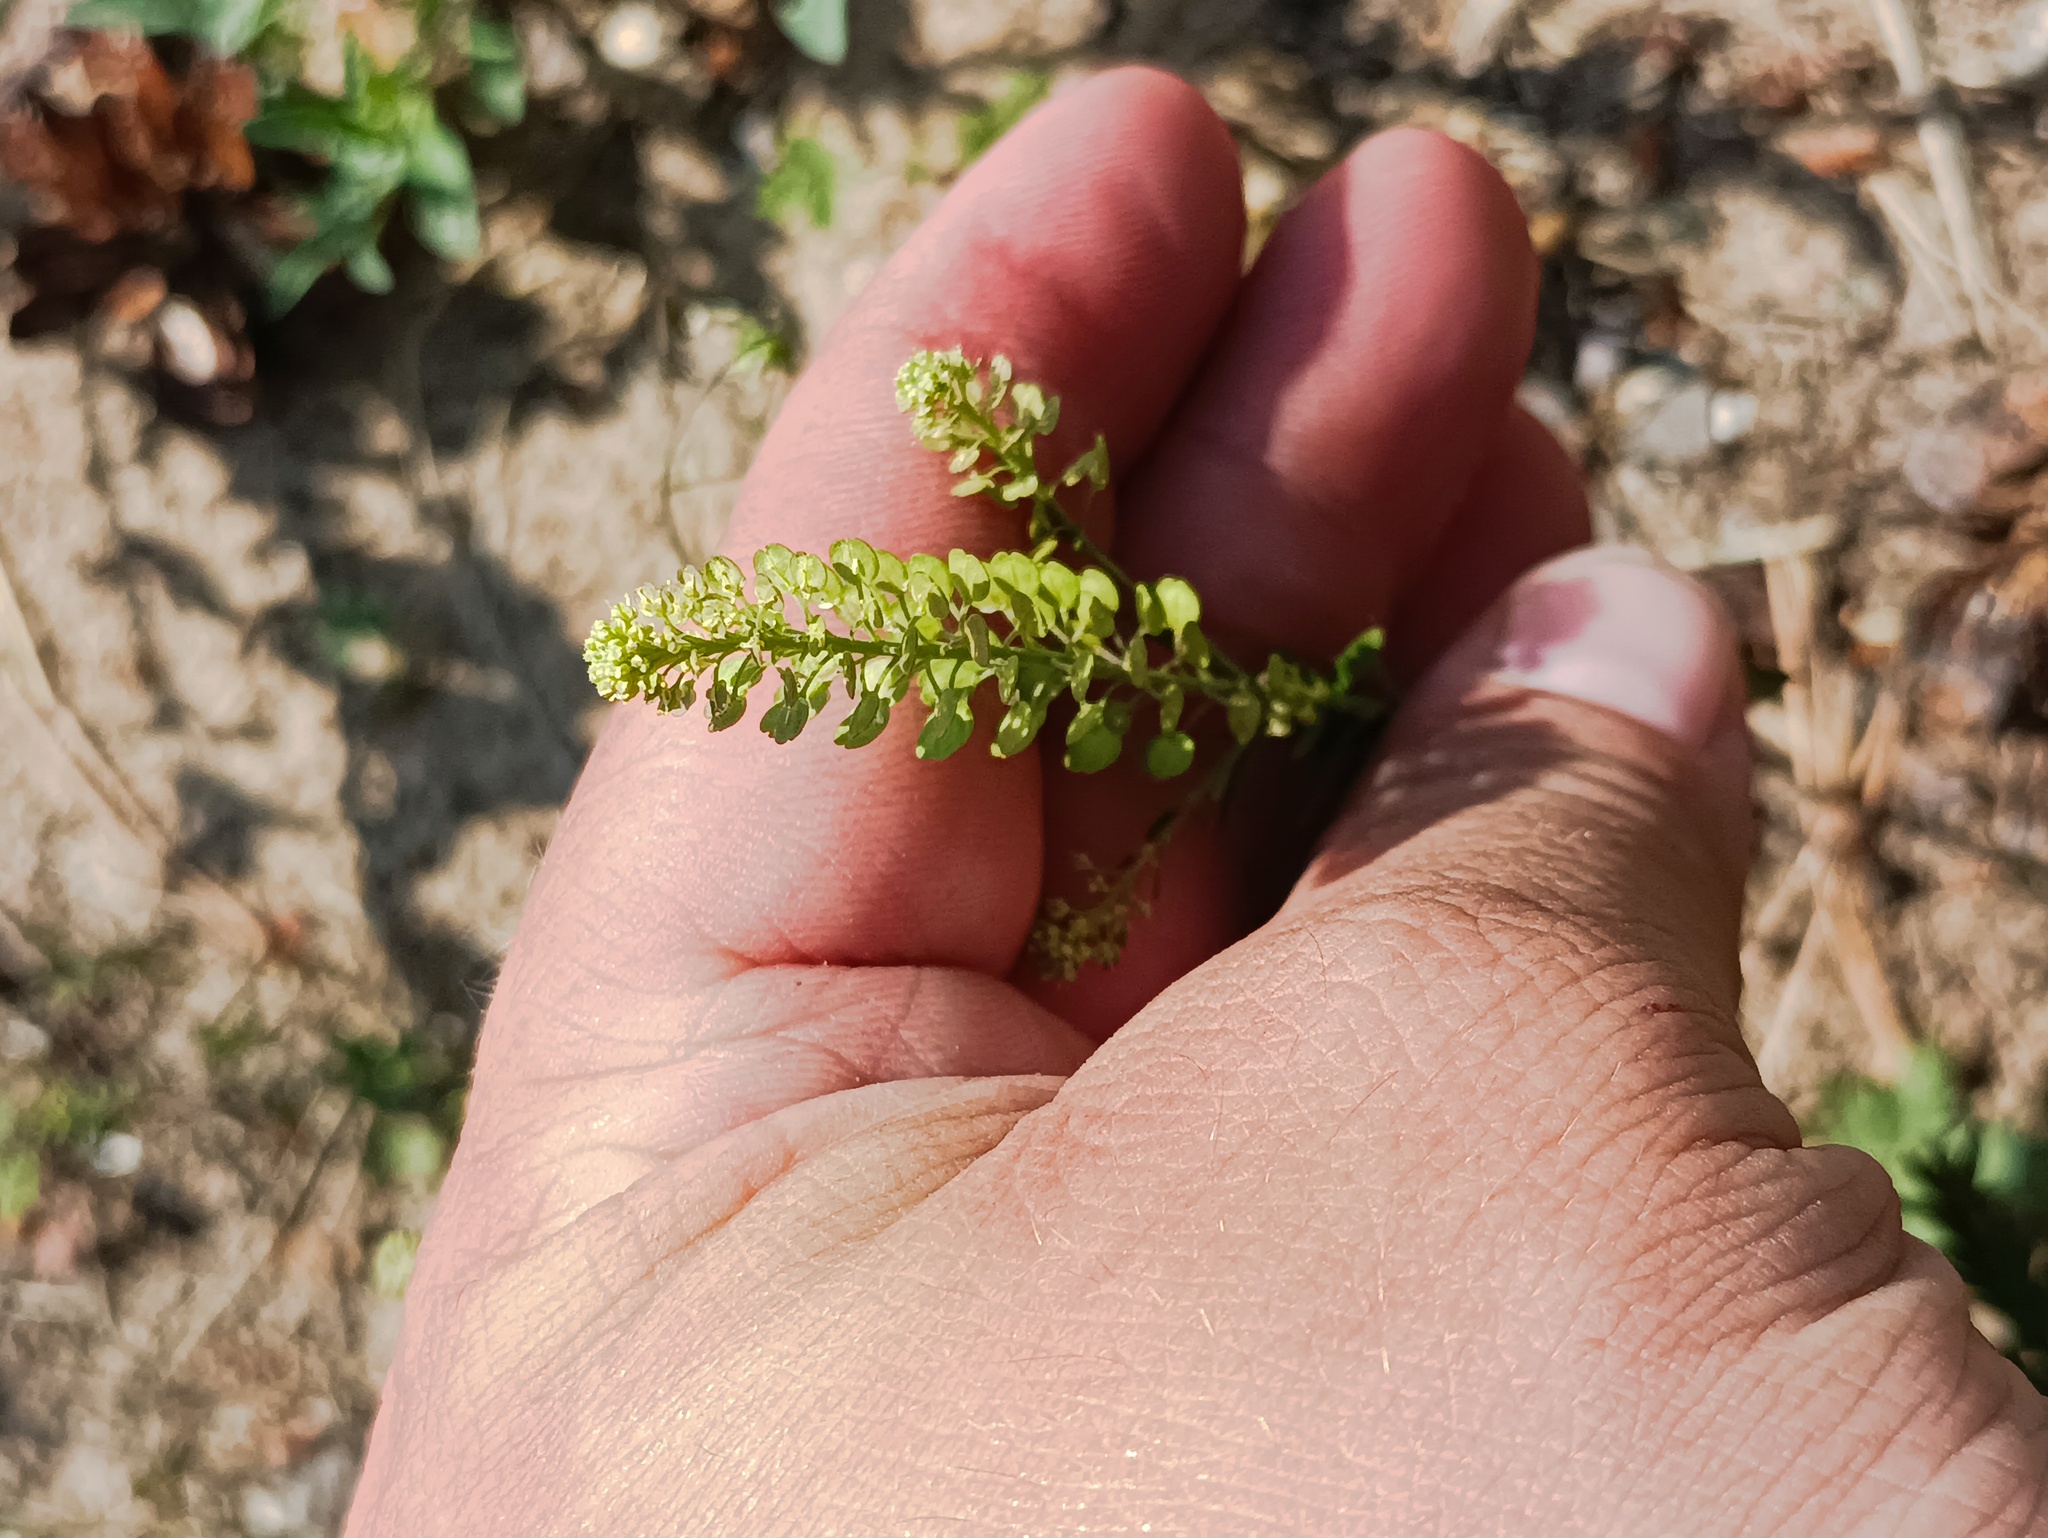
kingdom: Plantae
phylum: Tracheophyta
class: Magnoliopsida
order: Brassicales
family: Brassicaceae
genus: Lepidium
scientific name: Lepidium densiflorum
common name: Miner's pepperwort
